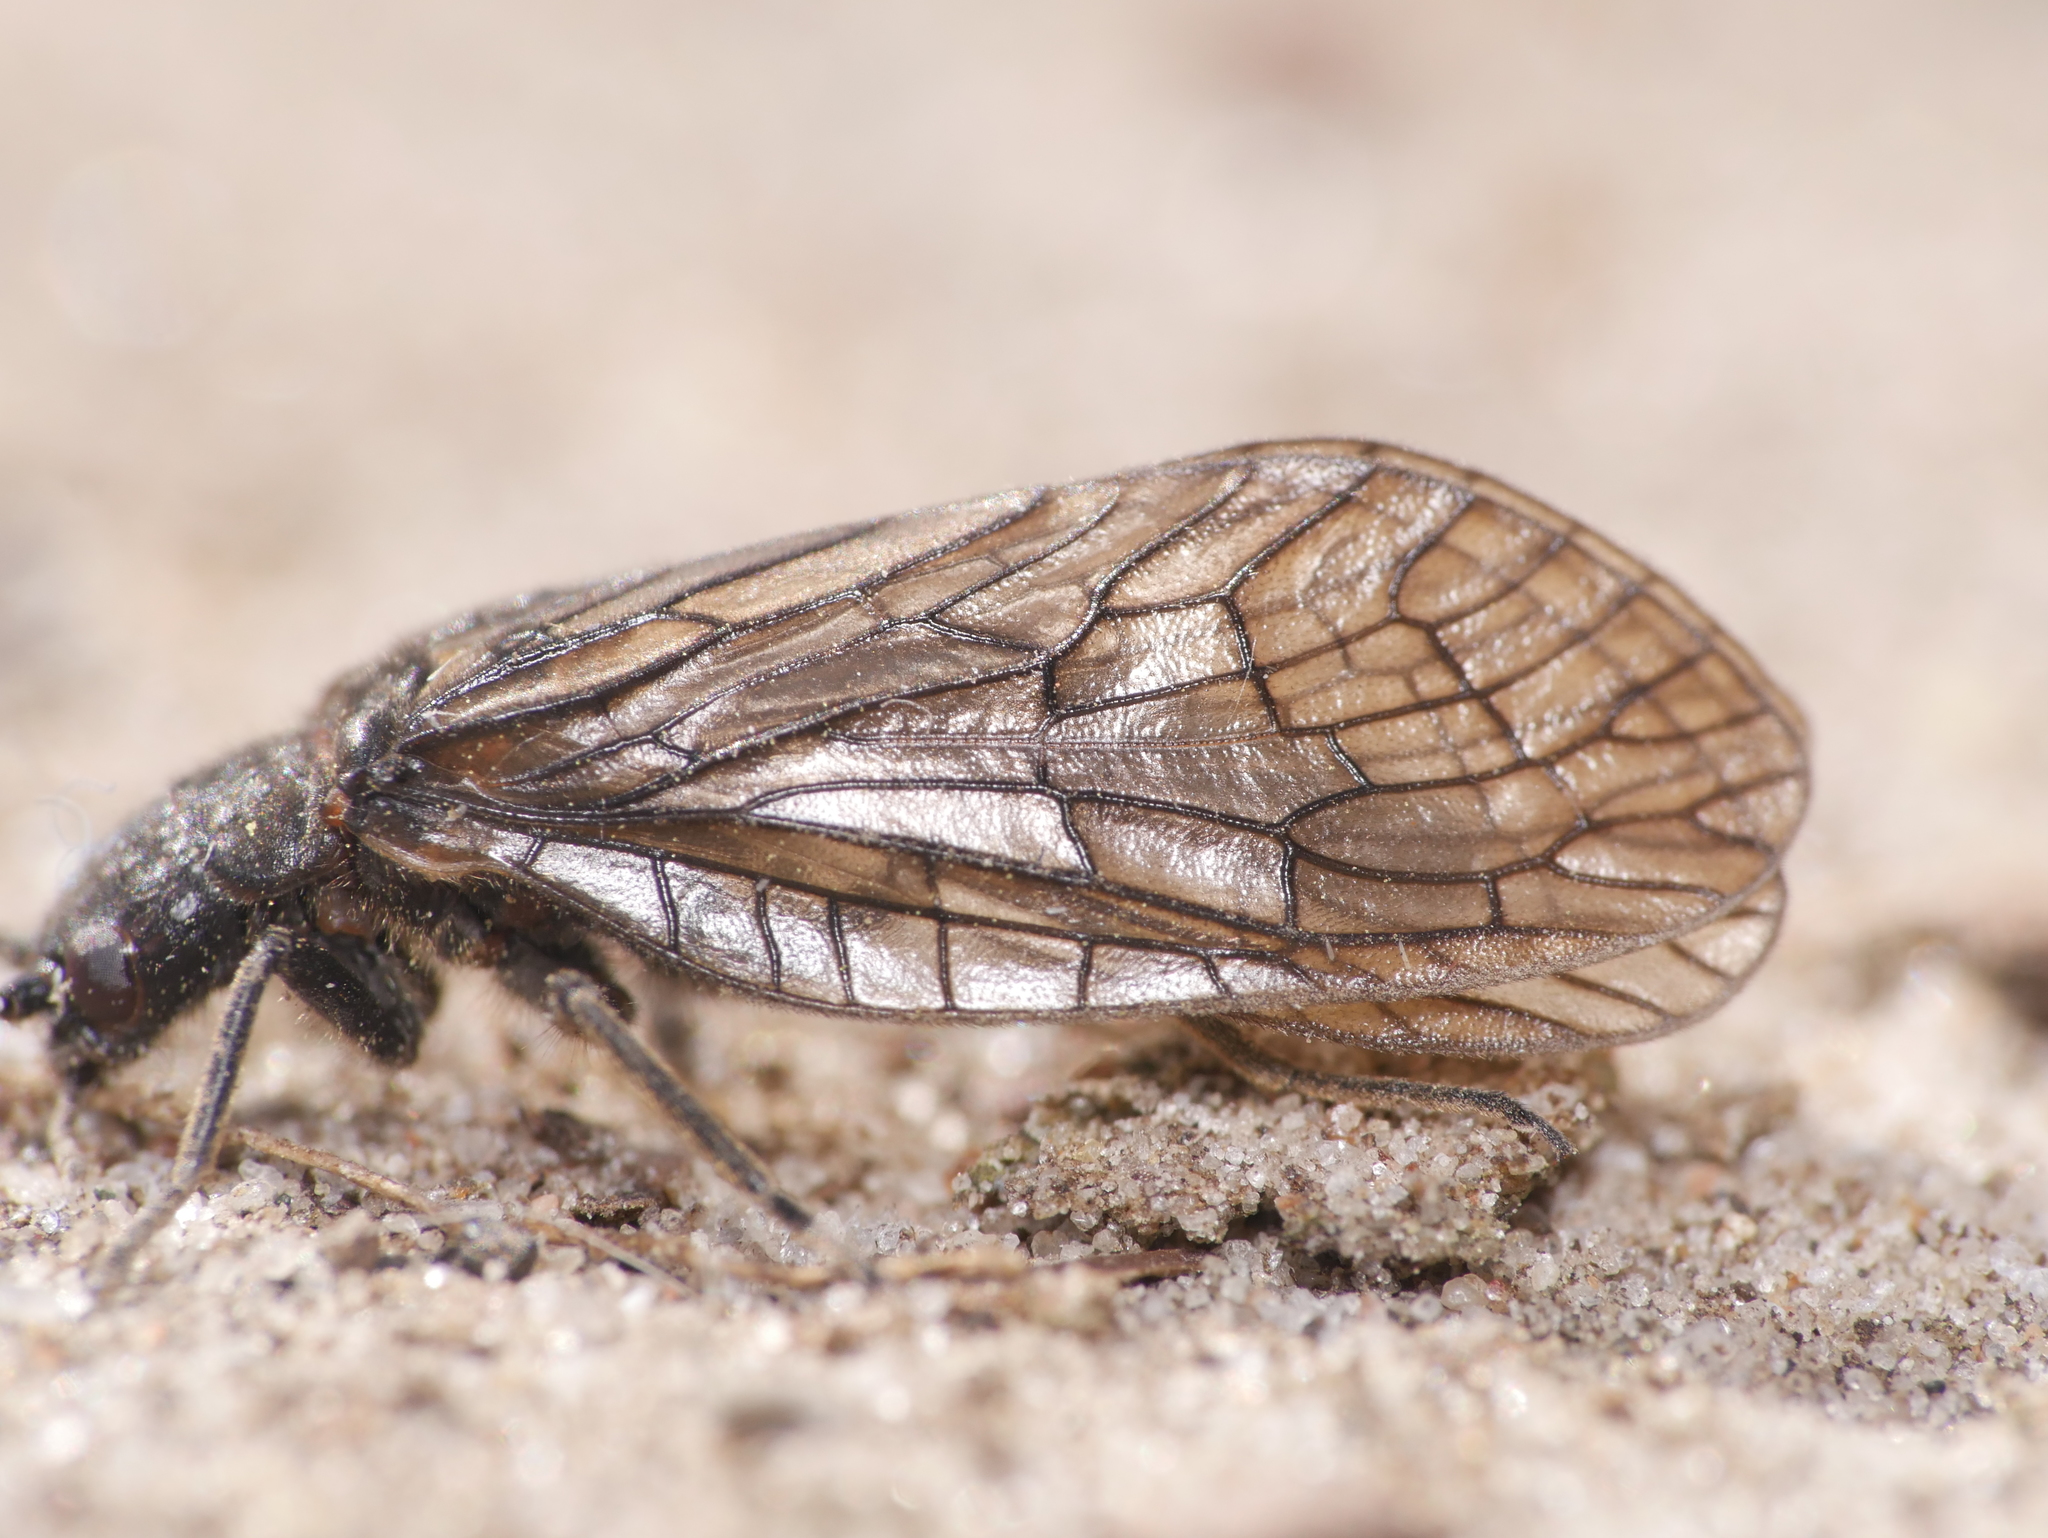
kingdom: Animalia
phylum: Arthropoda
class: Insecta
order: Megaloptera
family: Sialidae
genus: Sialis
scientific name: Sialis
